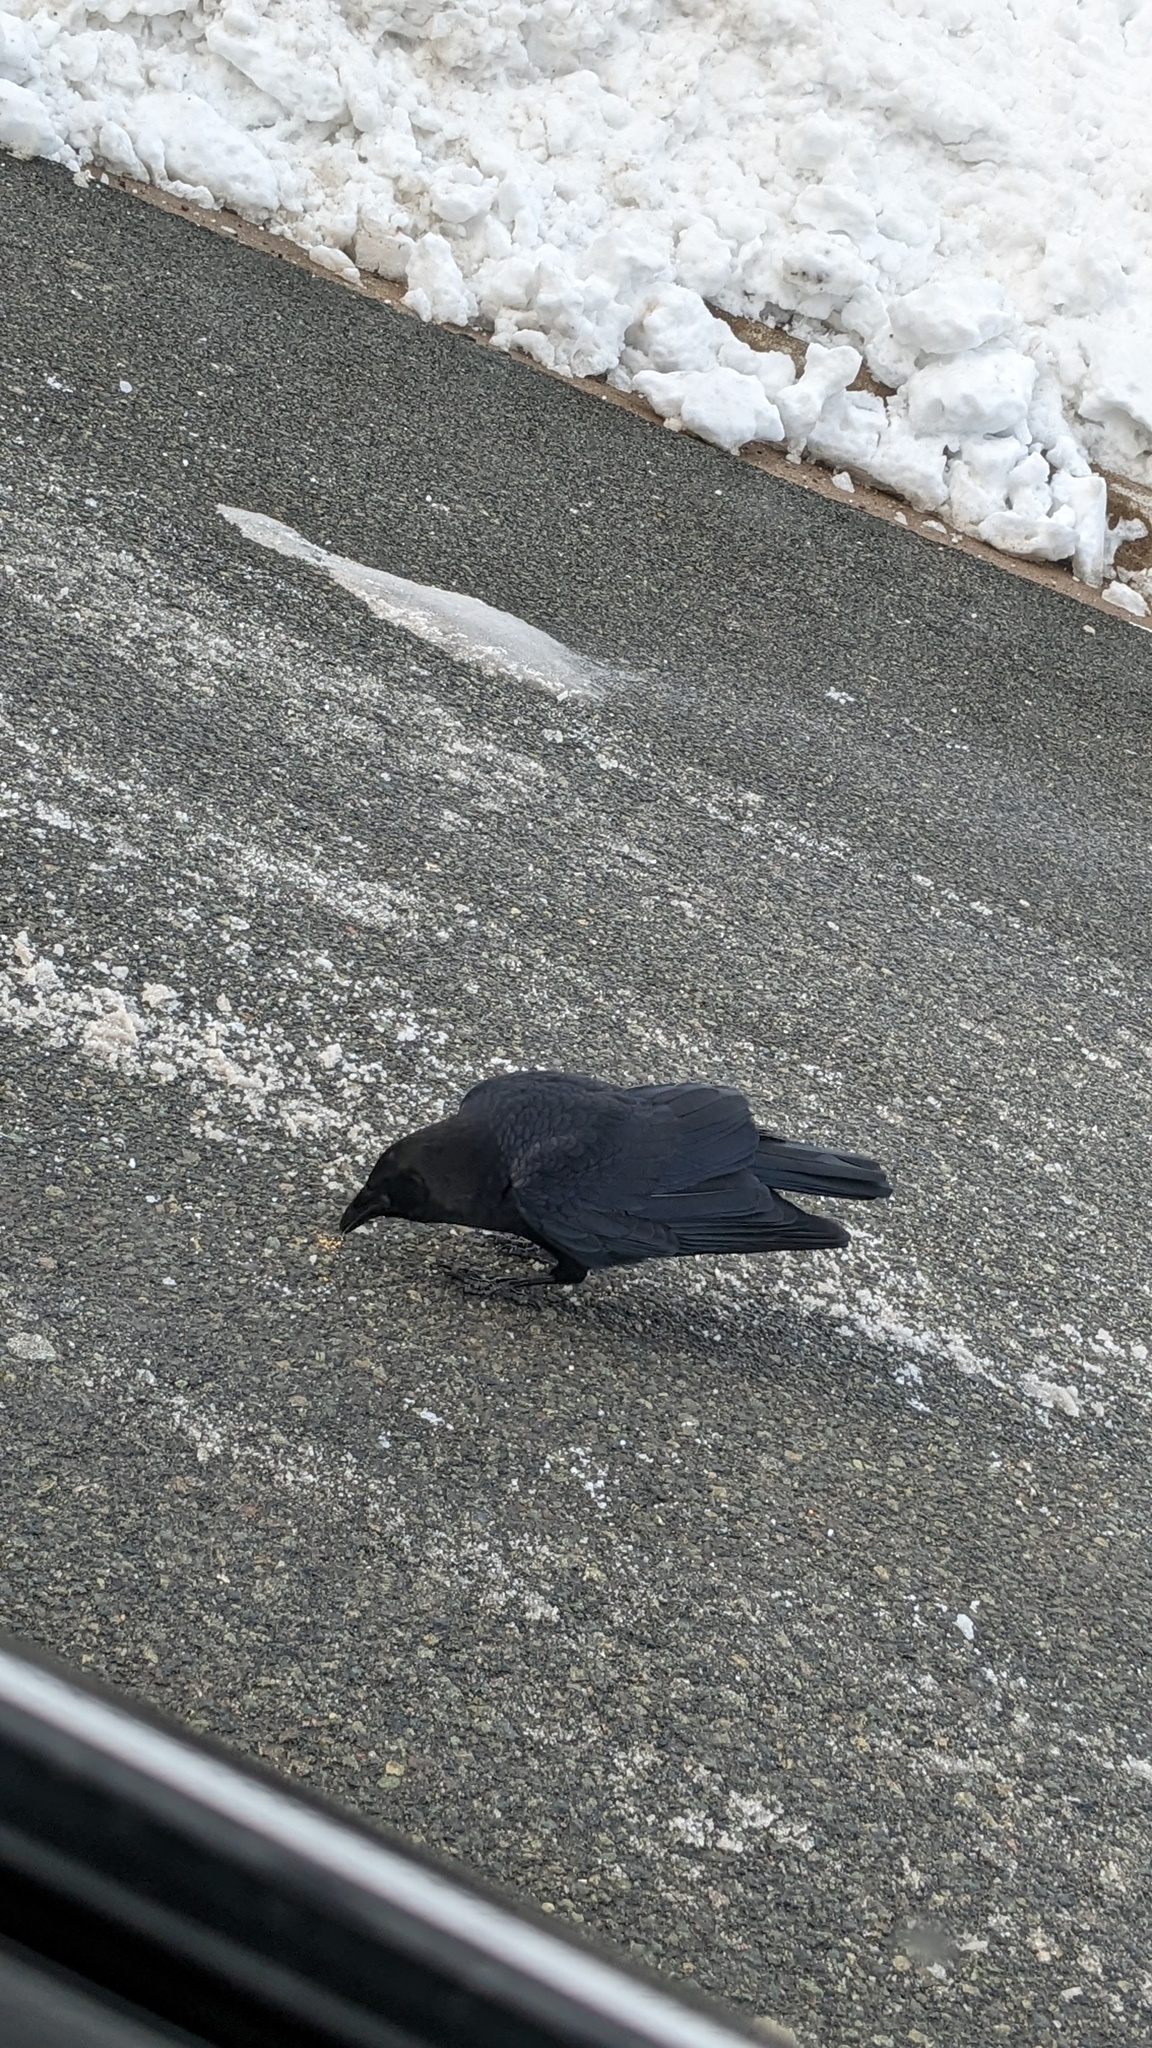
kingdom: Animalia
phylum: Chordata
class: Aves
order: Passeriformes
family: Corvidae
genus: Corvus
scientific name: Corvus brachyrhynchos
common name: American crow
